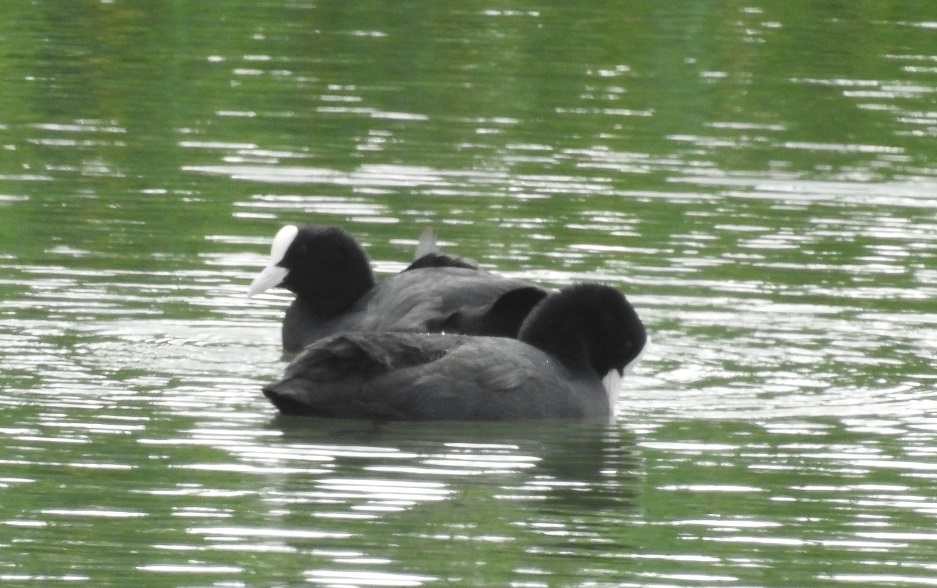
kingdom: Animalia
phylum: Chordata
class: Aves
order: Gruiformes
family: Rallidae
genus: Fulica
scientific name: Fulica atra
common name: Eurasian coot
